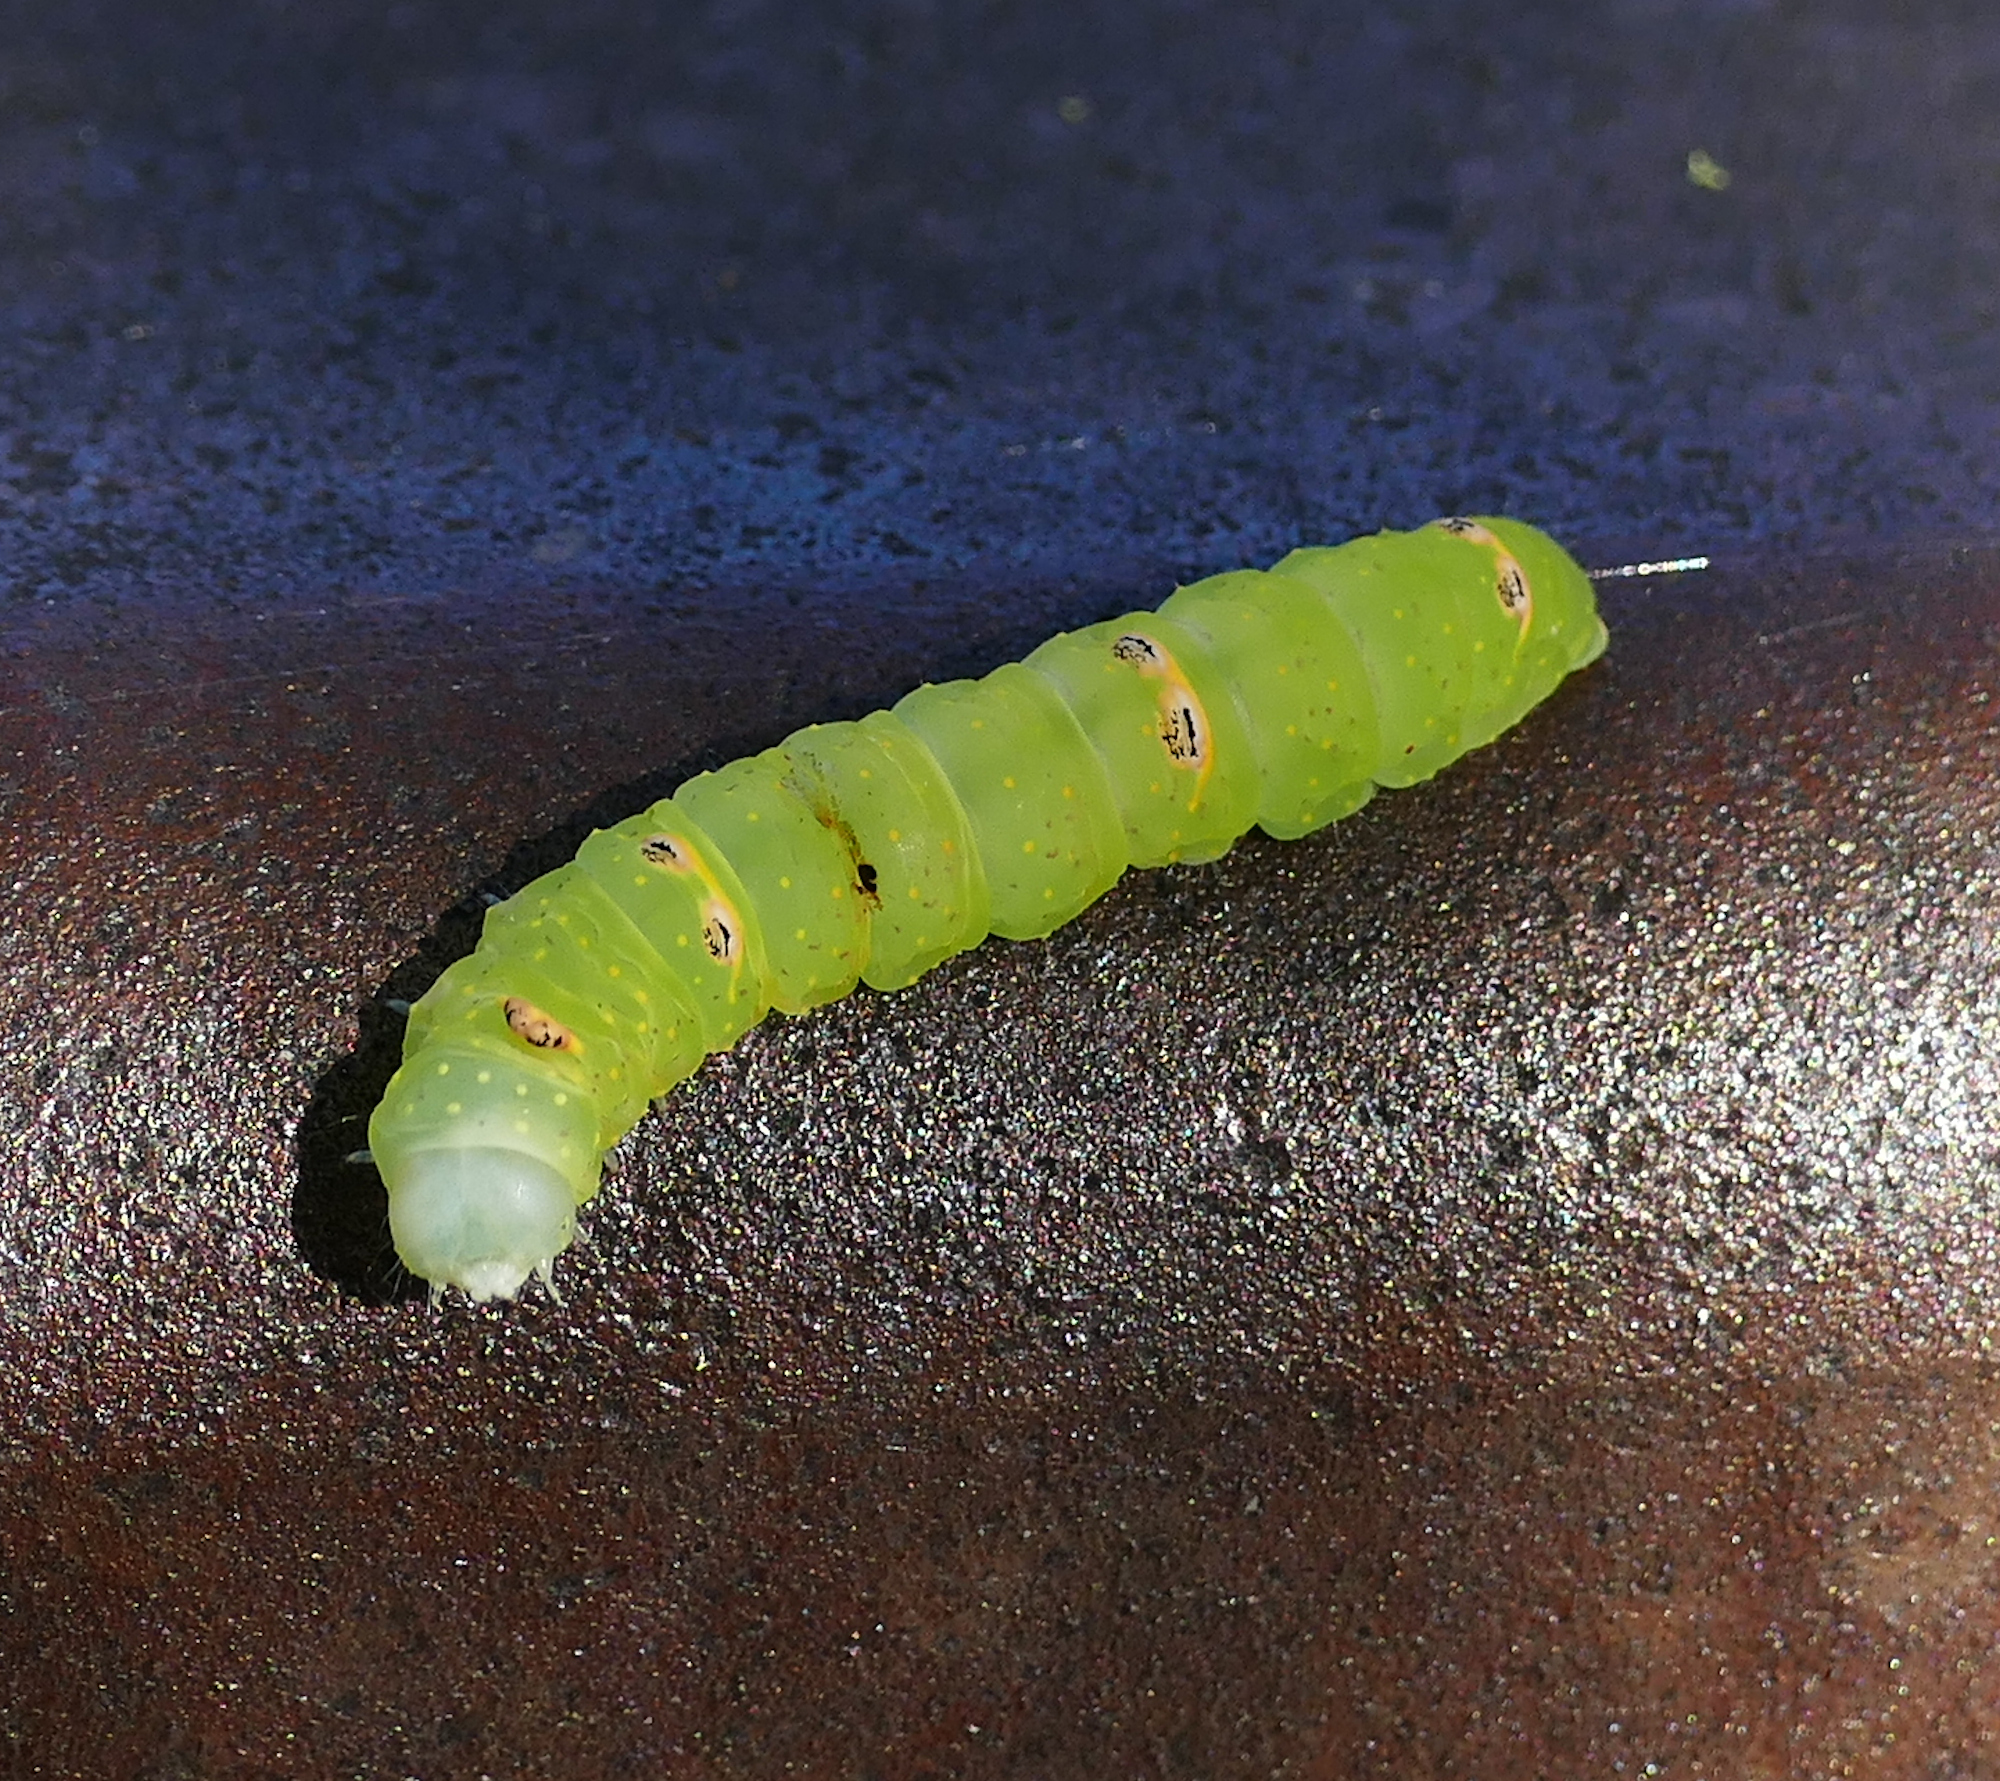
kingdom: Animalia
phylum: Arthropoda
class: Insecta
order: Lepidoptera
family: Noctuidae
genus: Raphia
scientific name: Raphia frater
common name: Brother
